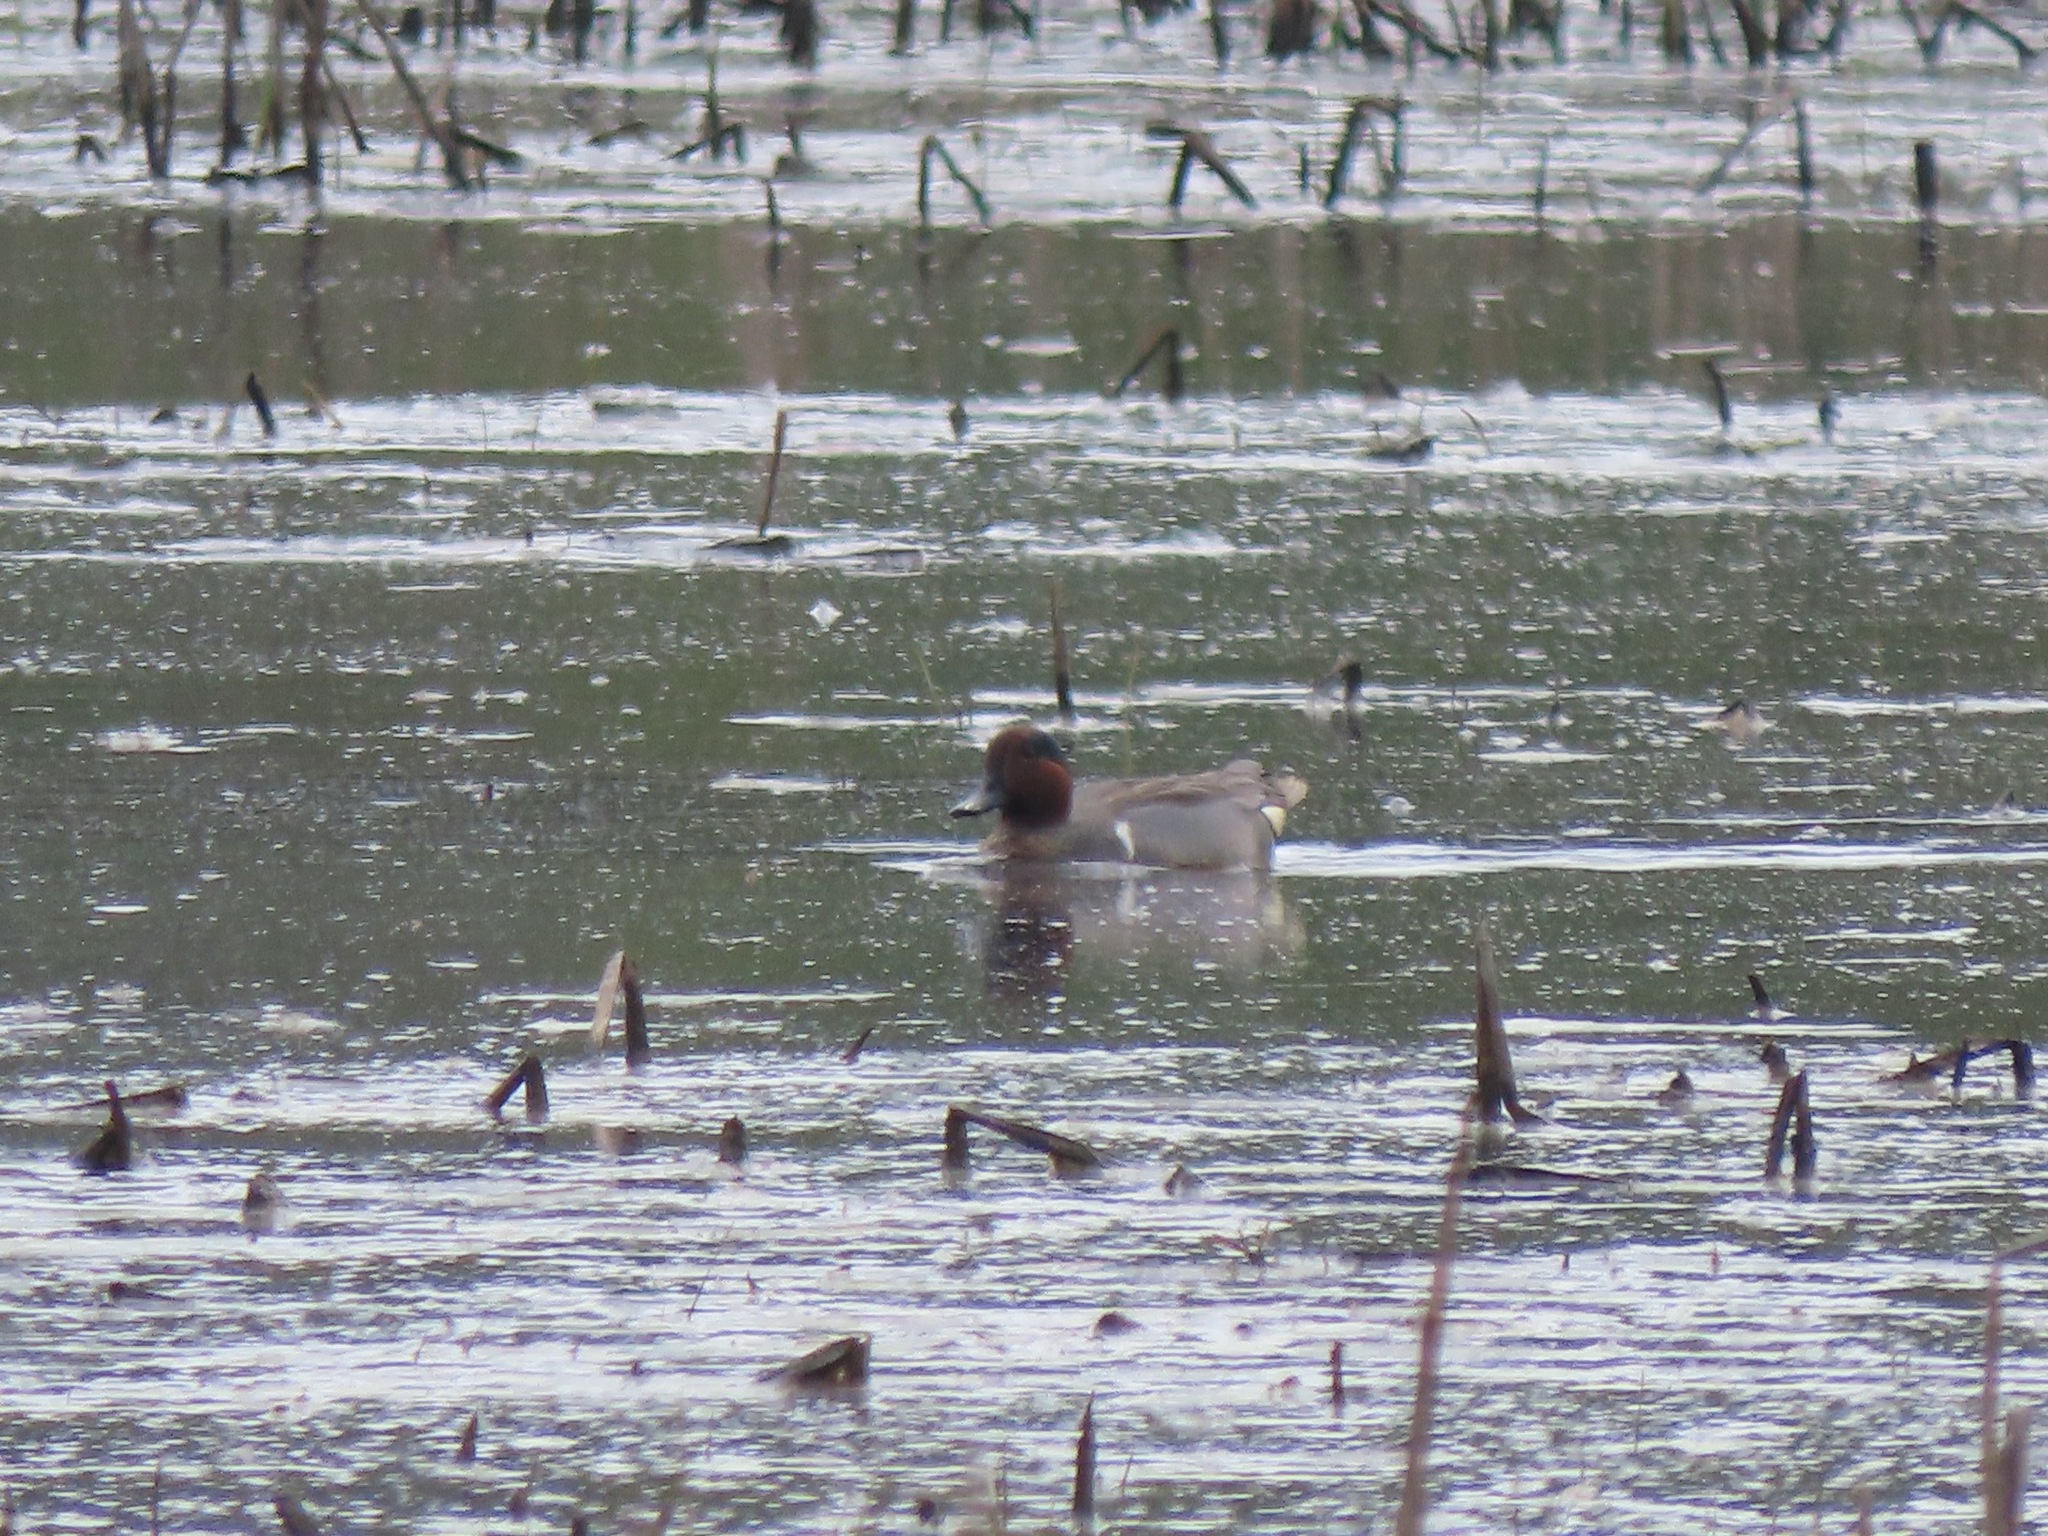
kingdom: Animalia
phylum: Chordata
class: Aves
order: Anseriformes
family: Anatidae
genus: Anas
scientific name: Anas crecca
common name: Eurasian teal
